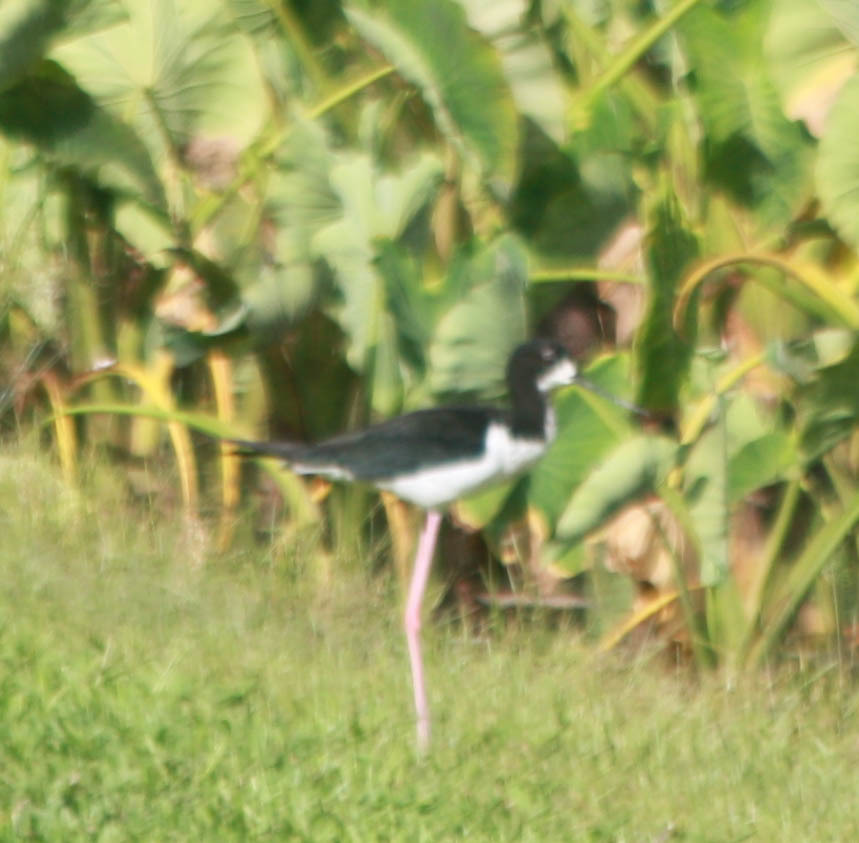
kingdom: Animalia
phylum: Chordata
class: Aves
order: Charadriiformes
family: Recurvirostridae
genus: Himantopus
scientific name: Himantopus mexicanus
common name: Black-necked stilt
